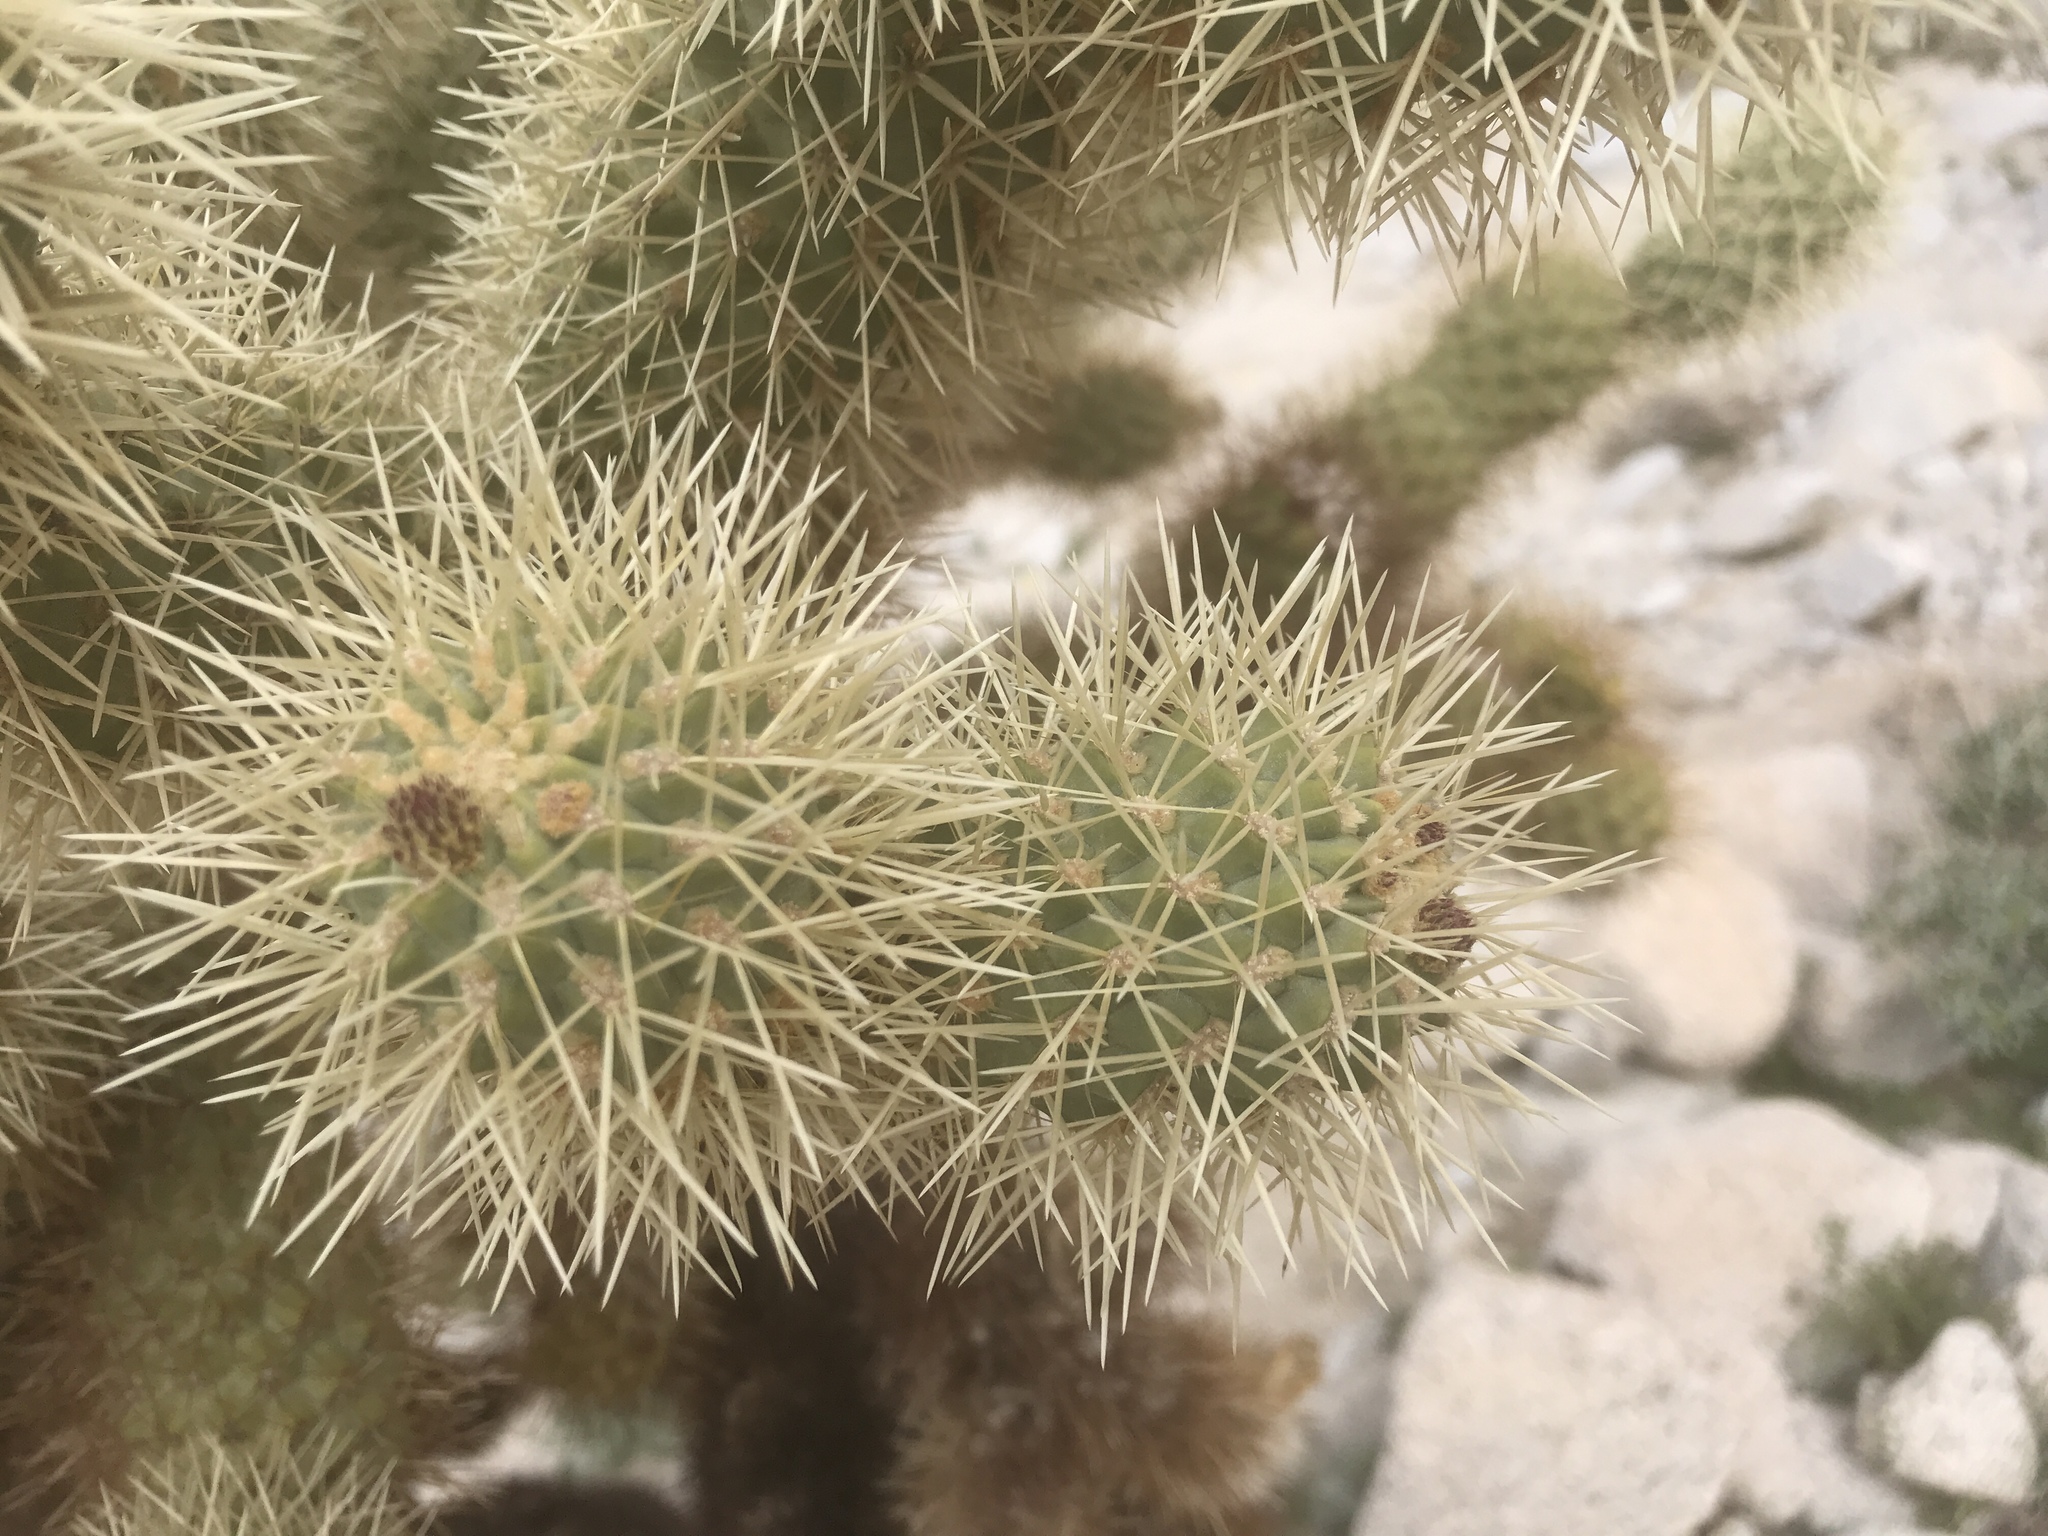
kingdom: Plantae
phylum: Tracheophyta
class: Magnoliopsida
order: Caryophyllales
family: Cactaceae
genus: Cylindropuntia
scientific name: Cylindropuntia fosbergii
